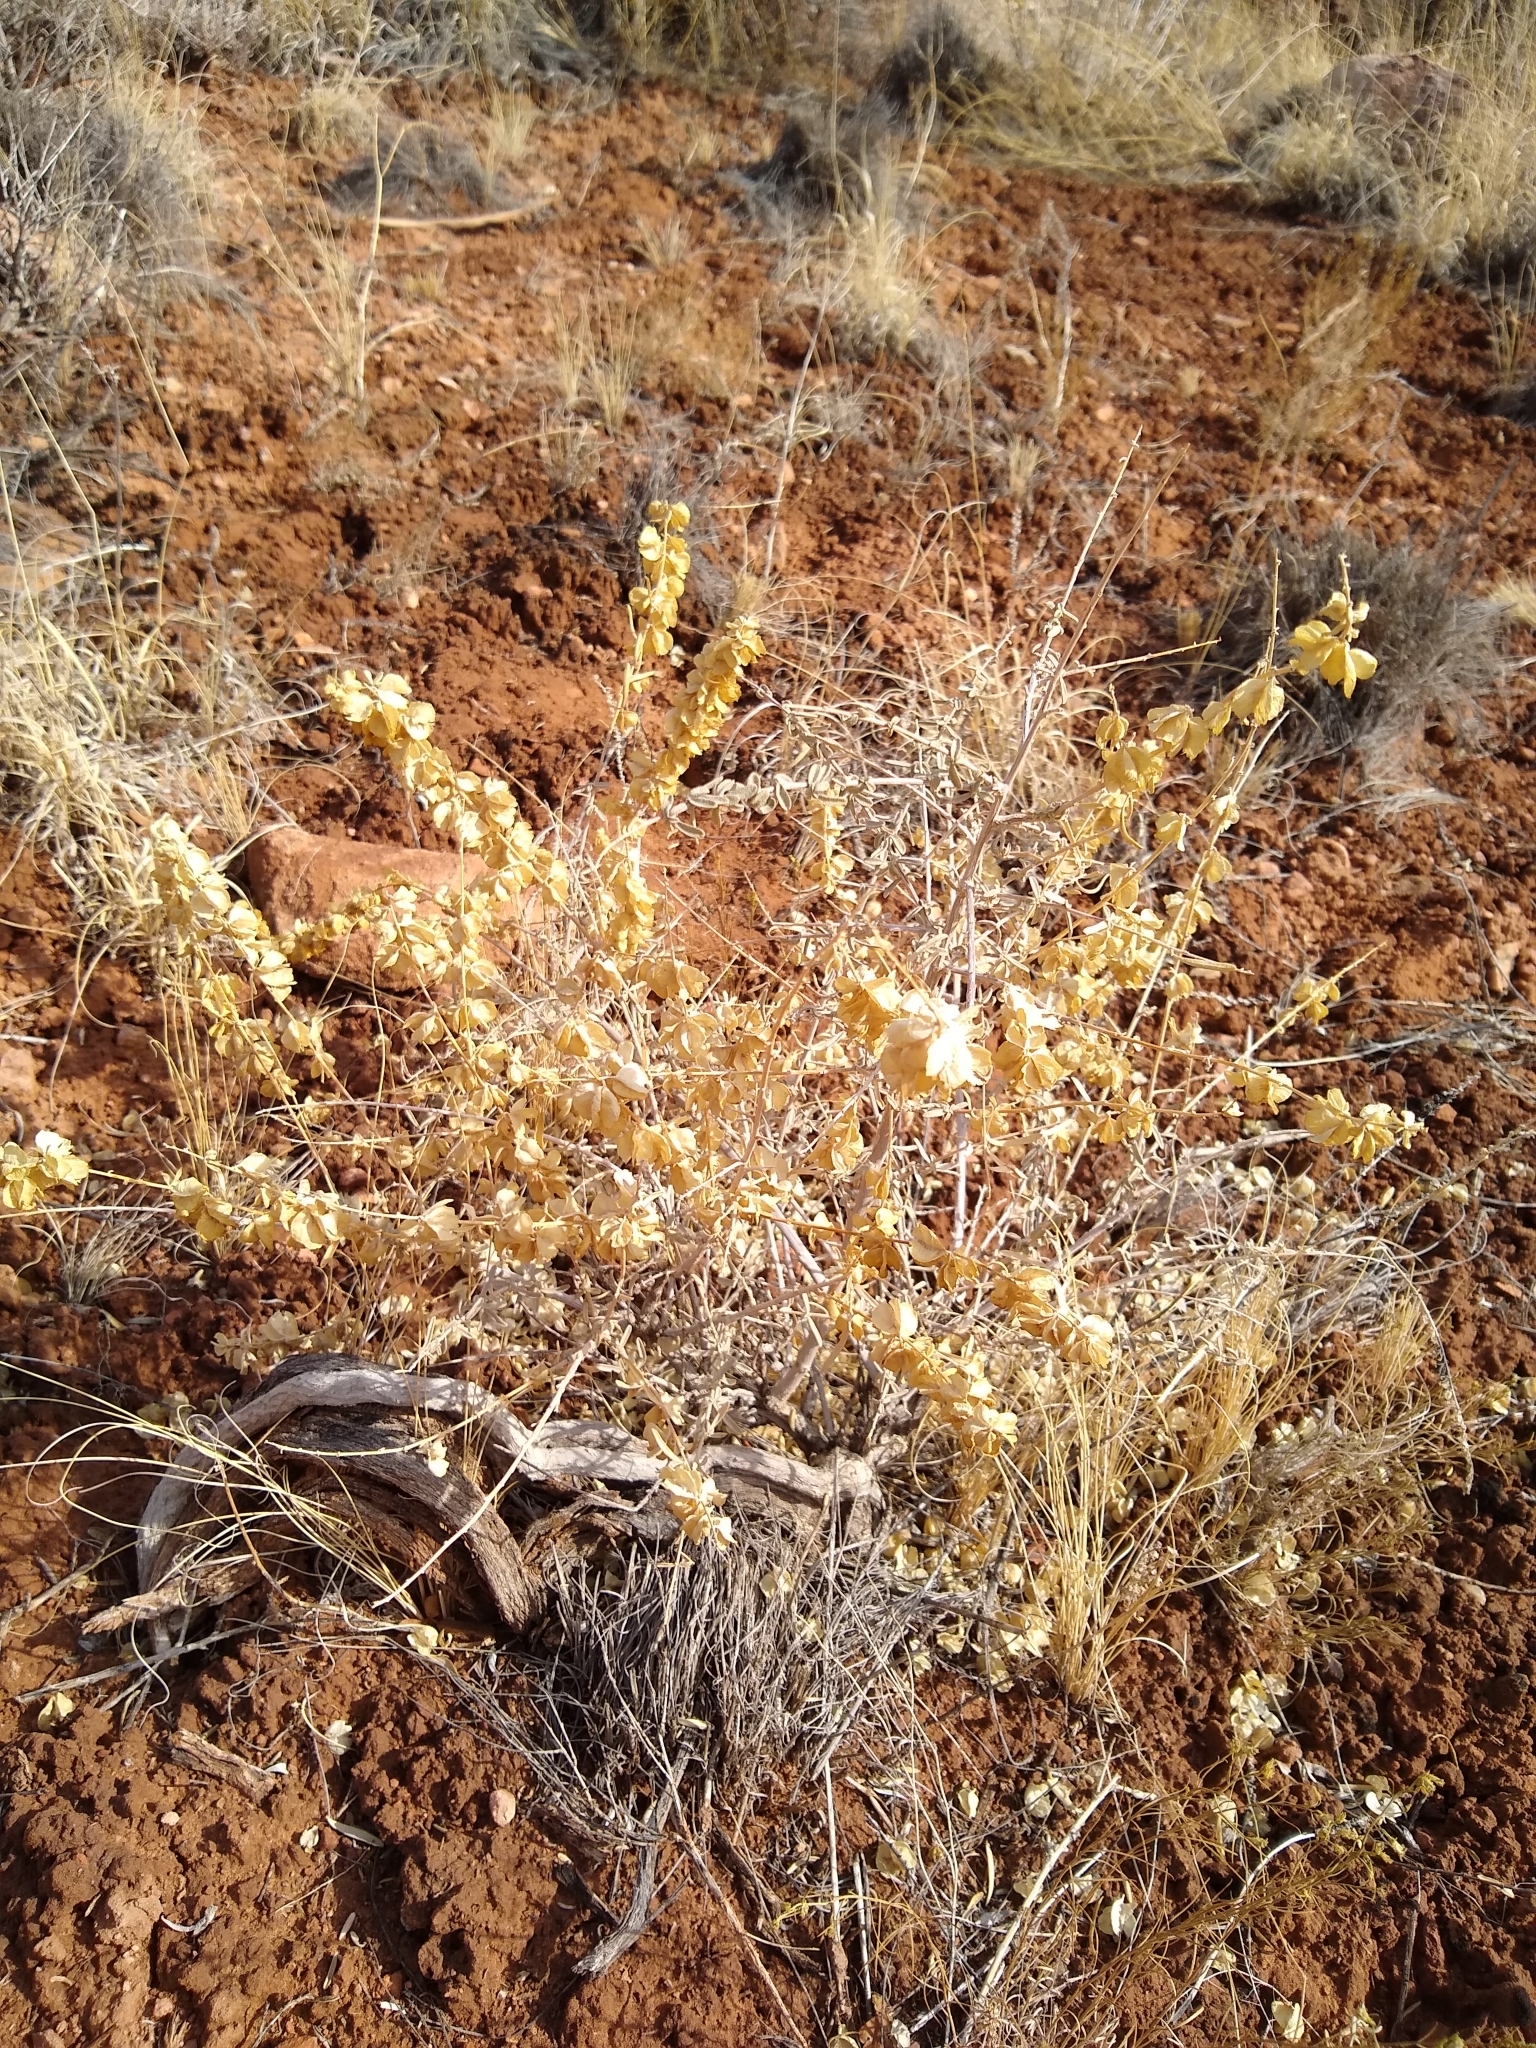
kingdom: Plantae
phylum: Tracheophyta
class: Magnoliopsida
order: Caryophyllales
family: Amaranthaceae
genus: Atriplex
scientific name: Atriplex canescens
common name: Four-wing saltbush
